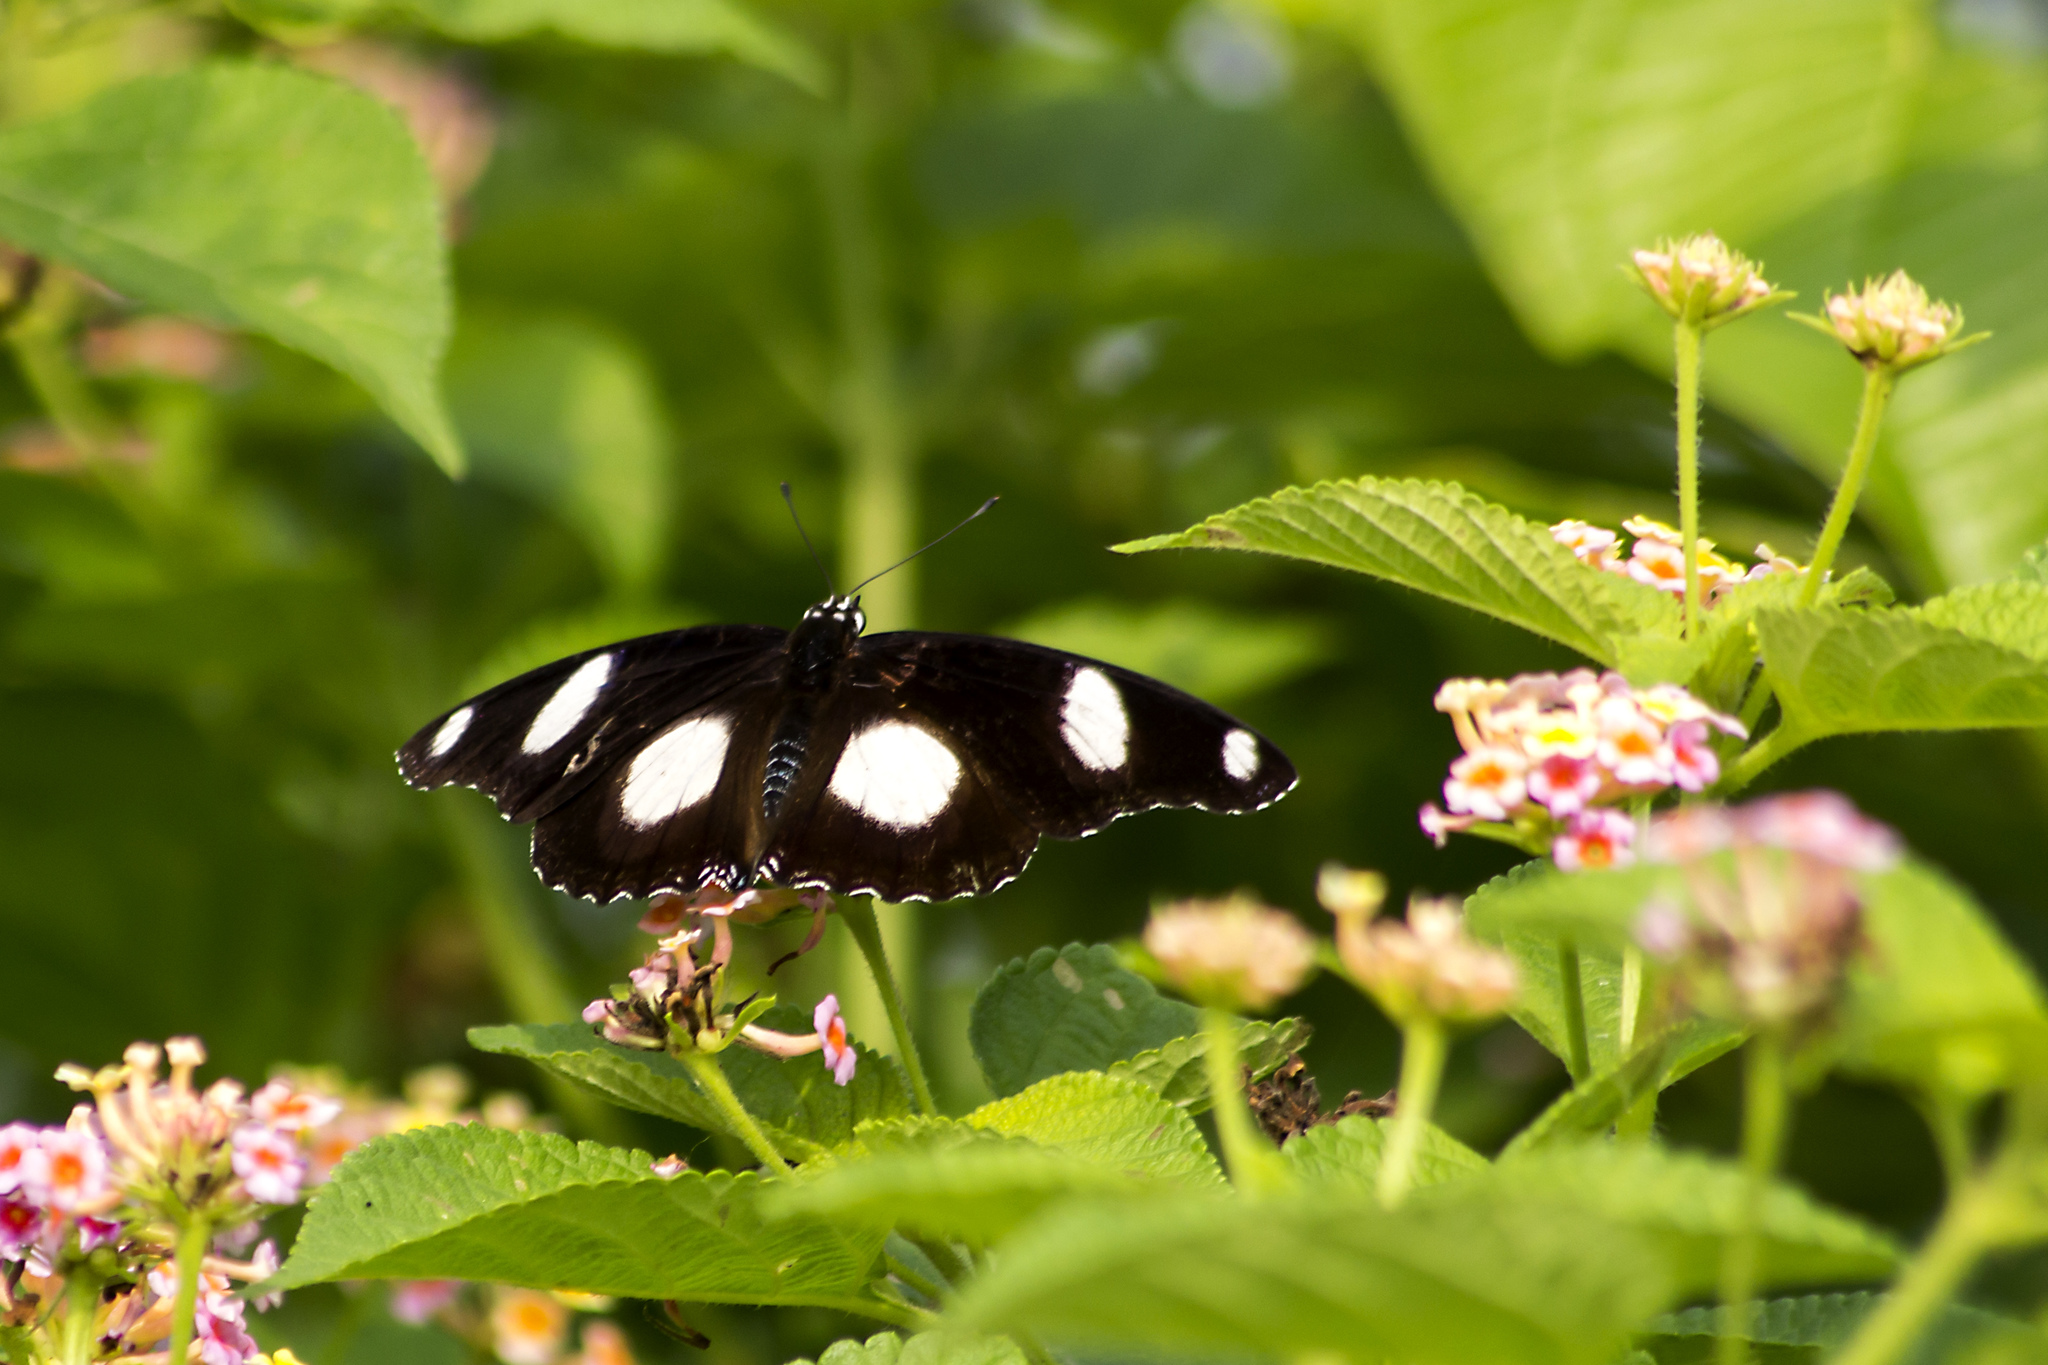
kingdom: Animalia
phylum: Arthropoda
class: Insecta
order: Lepidoptera
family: Nymphalidae
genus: Hypolimnas
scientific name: Hypolimnas misippus
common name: False plain tiger
